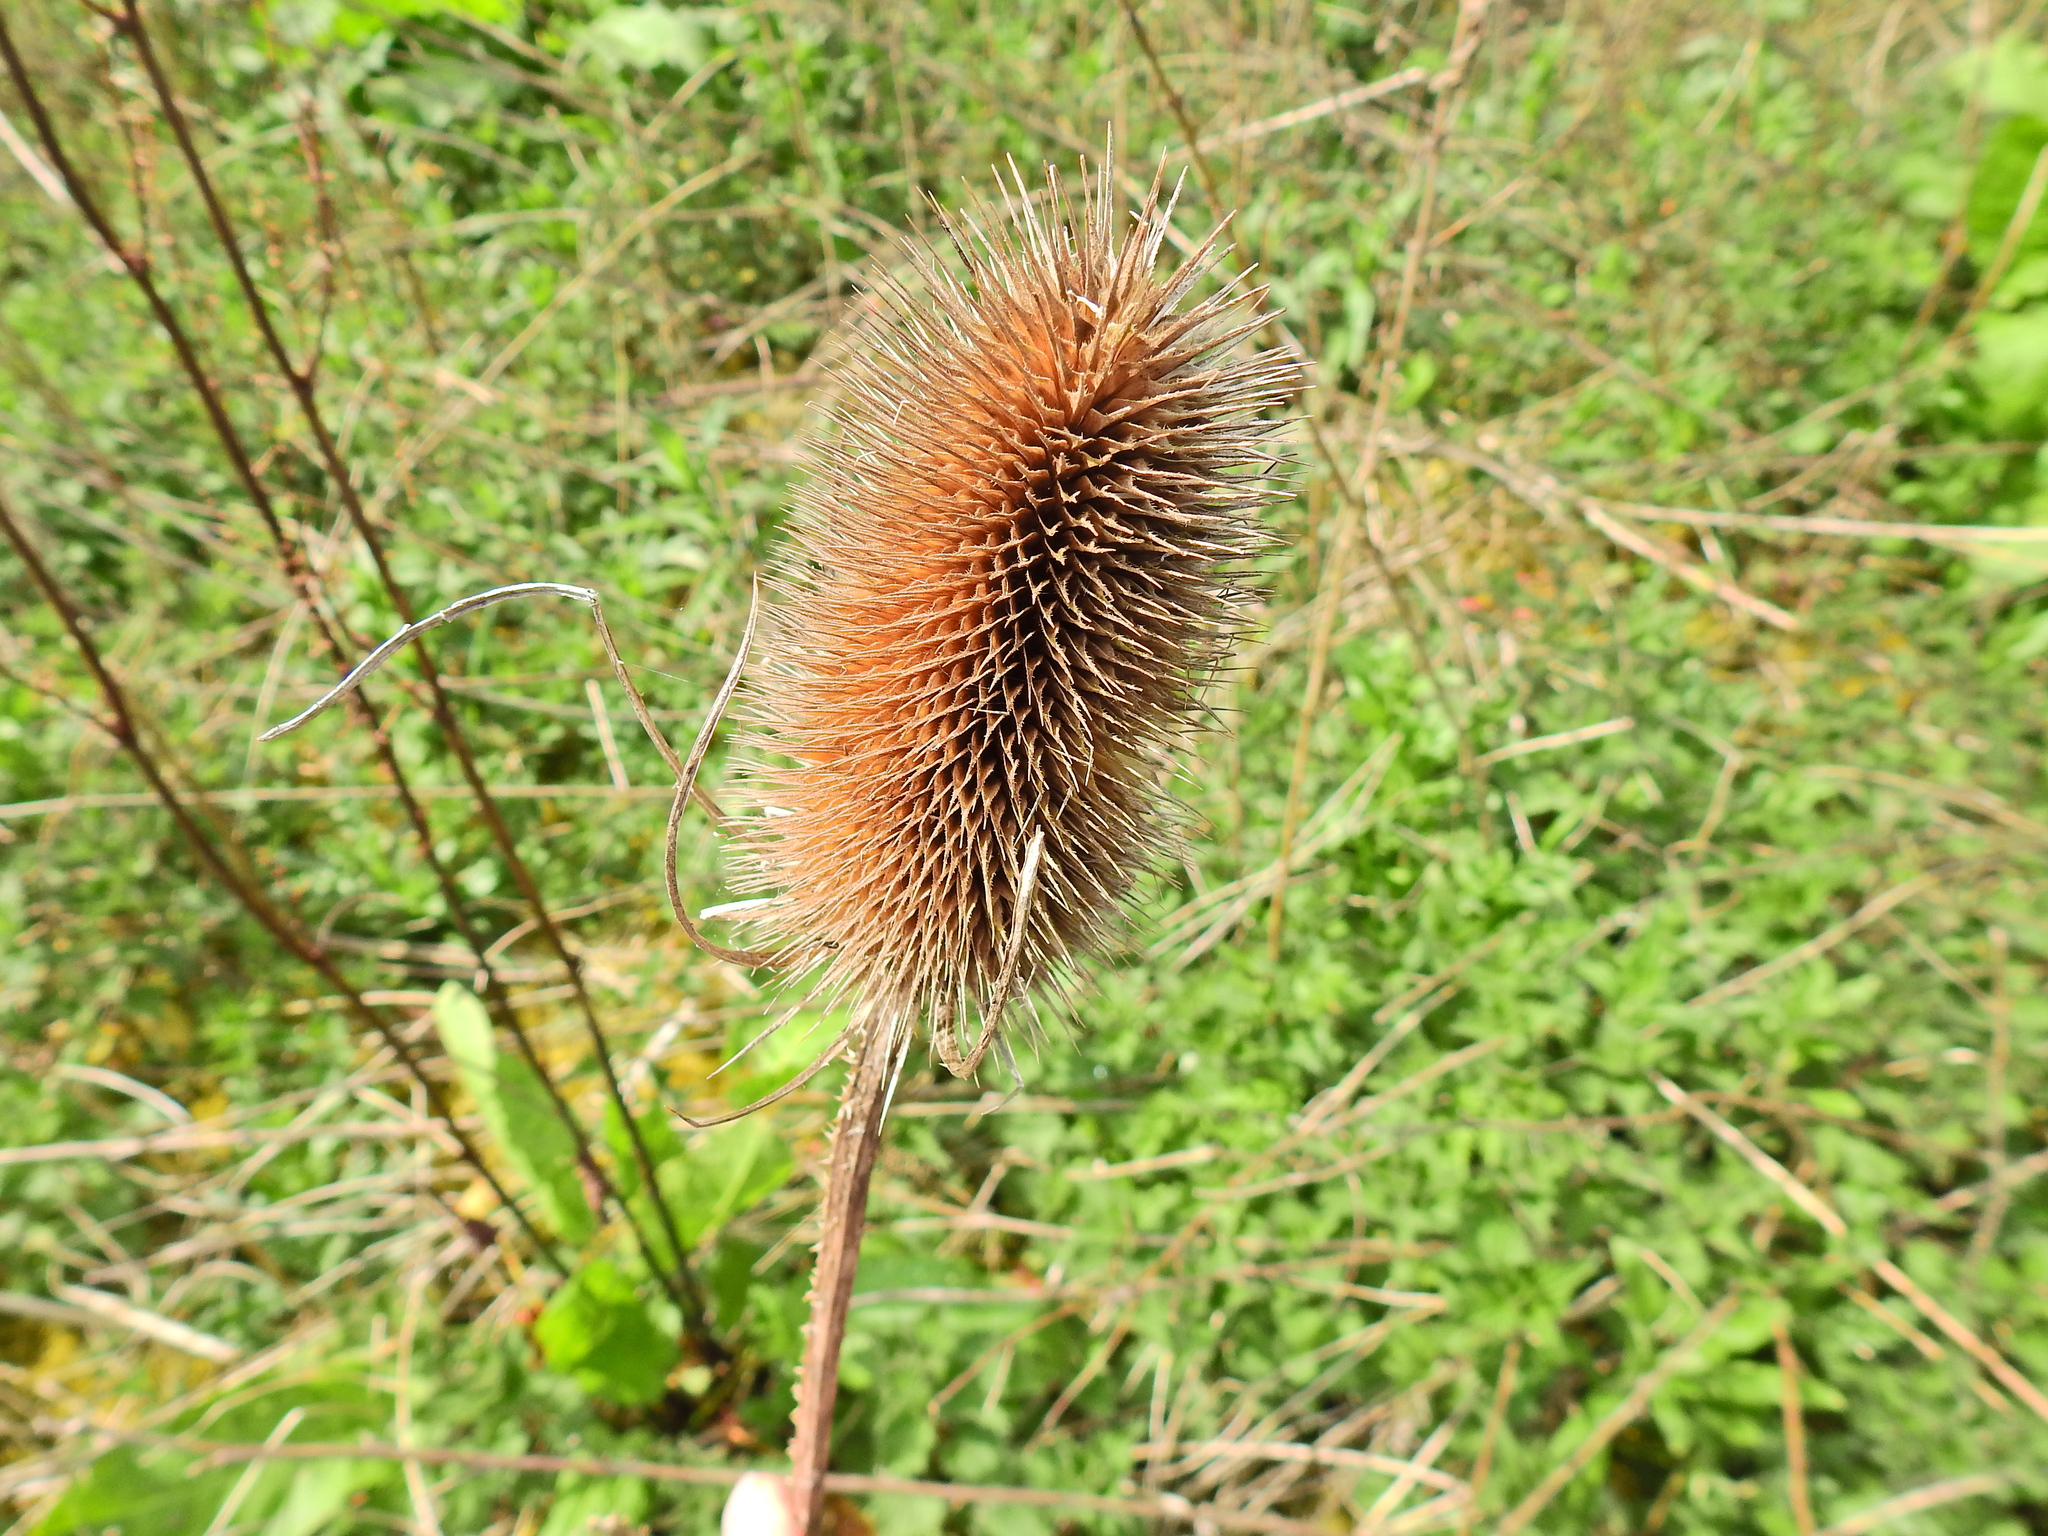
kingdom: Plantae
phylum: Tracheophyta
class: Magnoliopsida
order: Dipsacales
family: Caprifoliaceae
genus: Dipsacus
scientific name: Dipsacus fullonum
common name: Teasel
